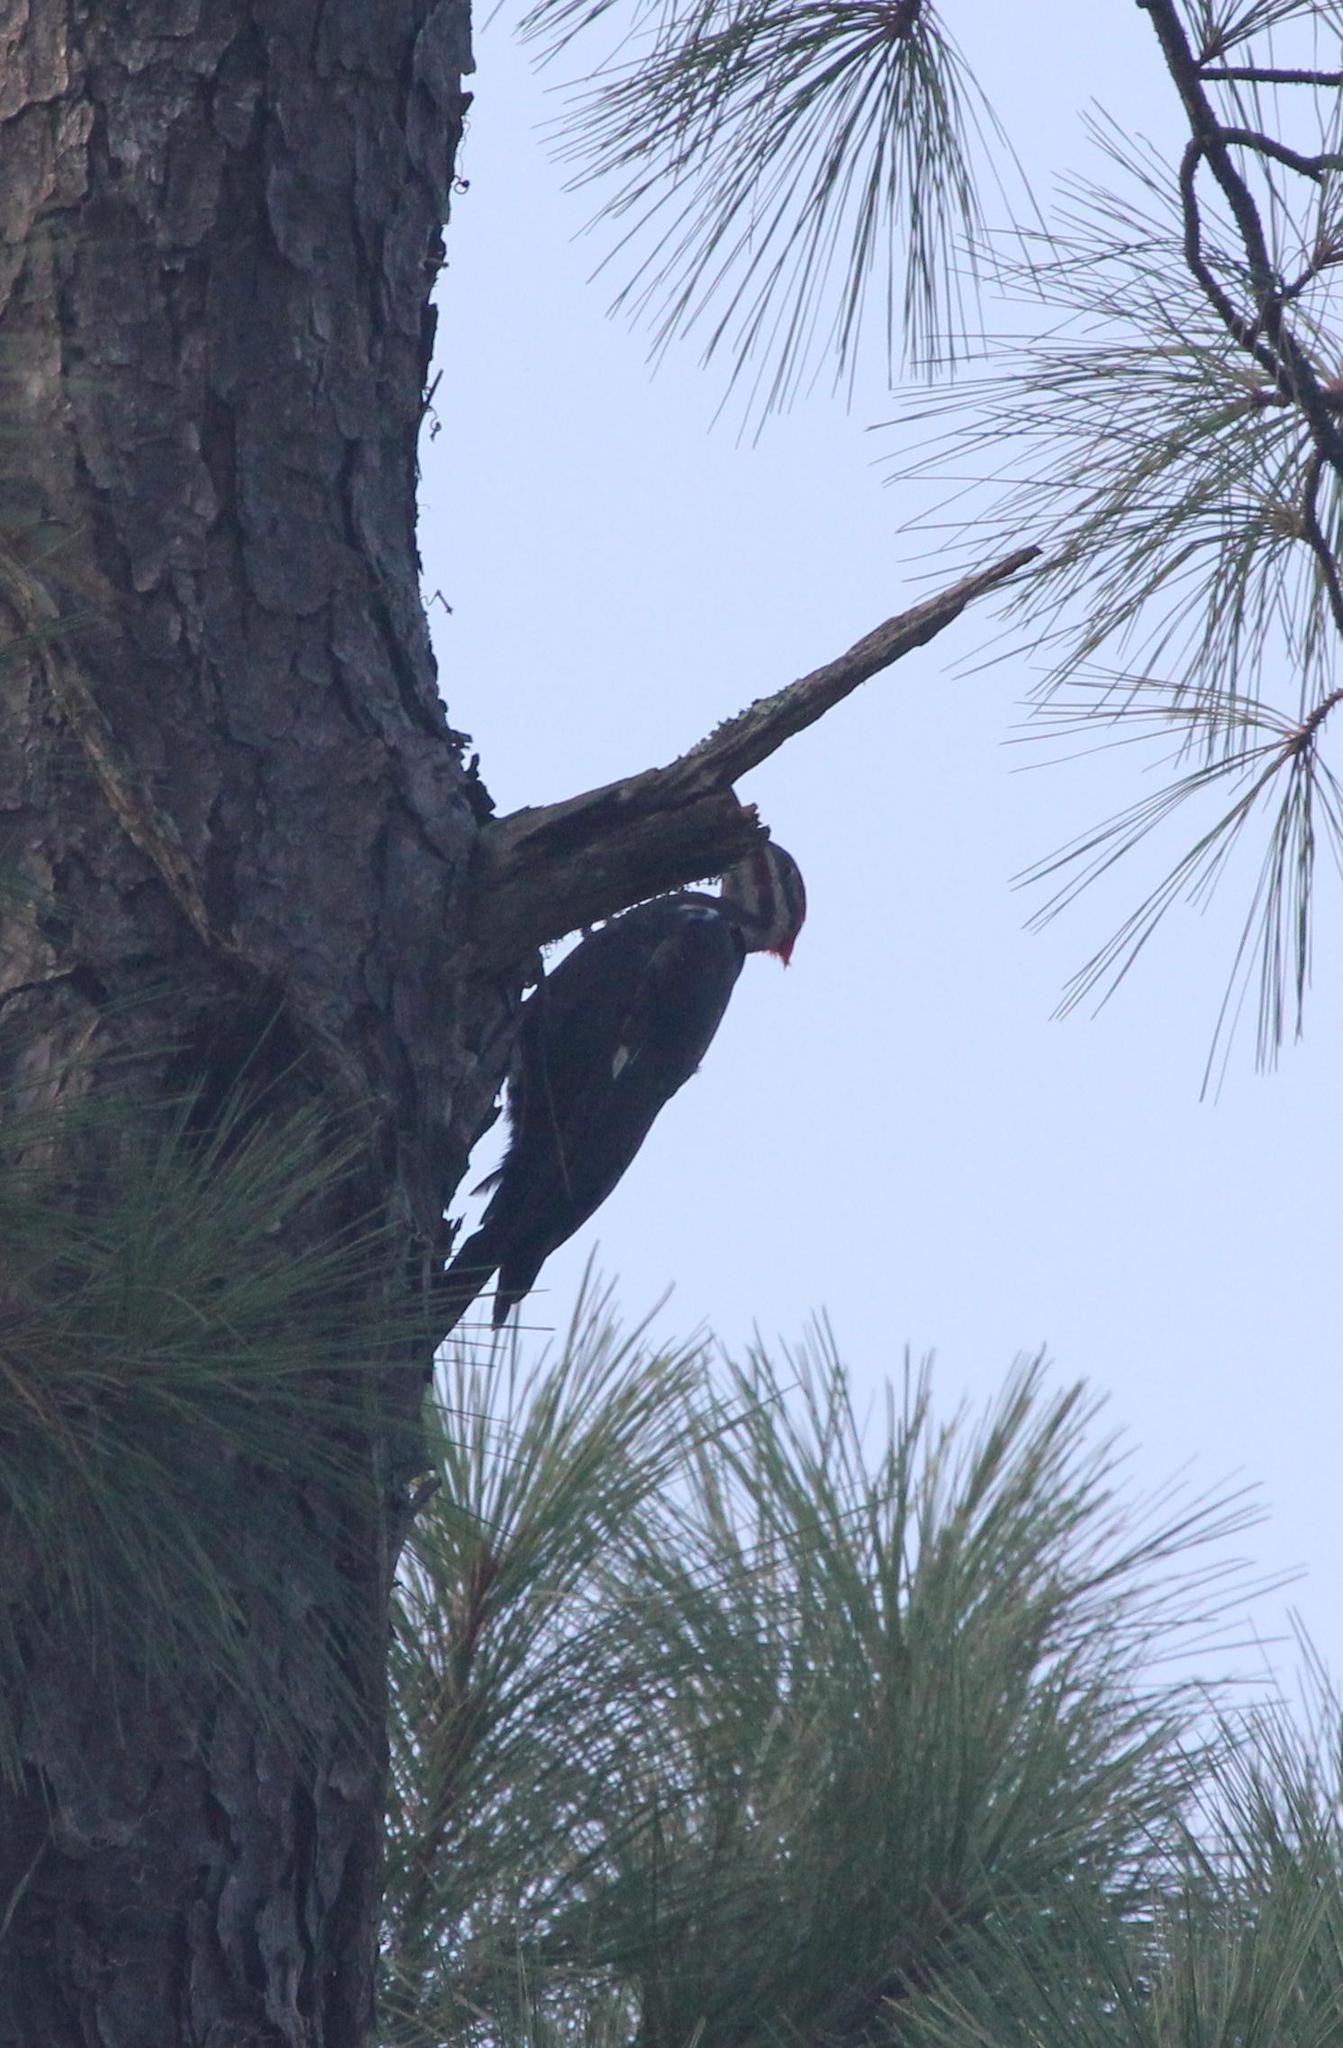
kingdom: Animalia
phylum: Chordata
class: Aves
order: Piciformes
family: Picidae
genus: Dryocopus
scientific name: Dryocopus pileatus
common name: Pileated woodpecker
